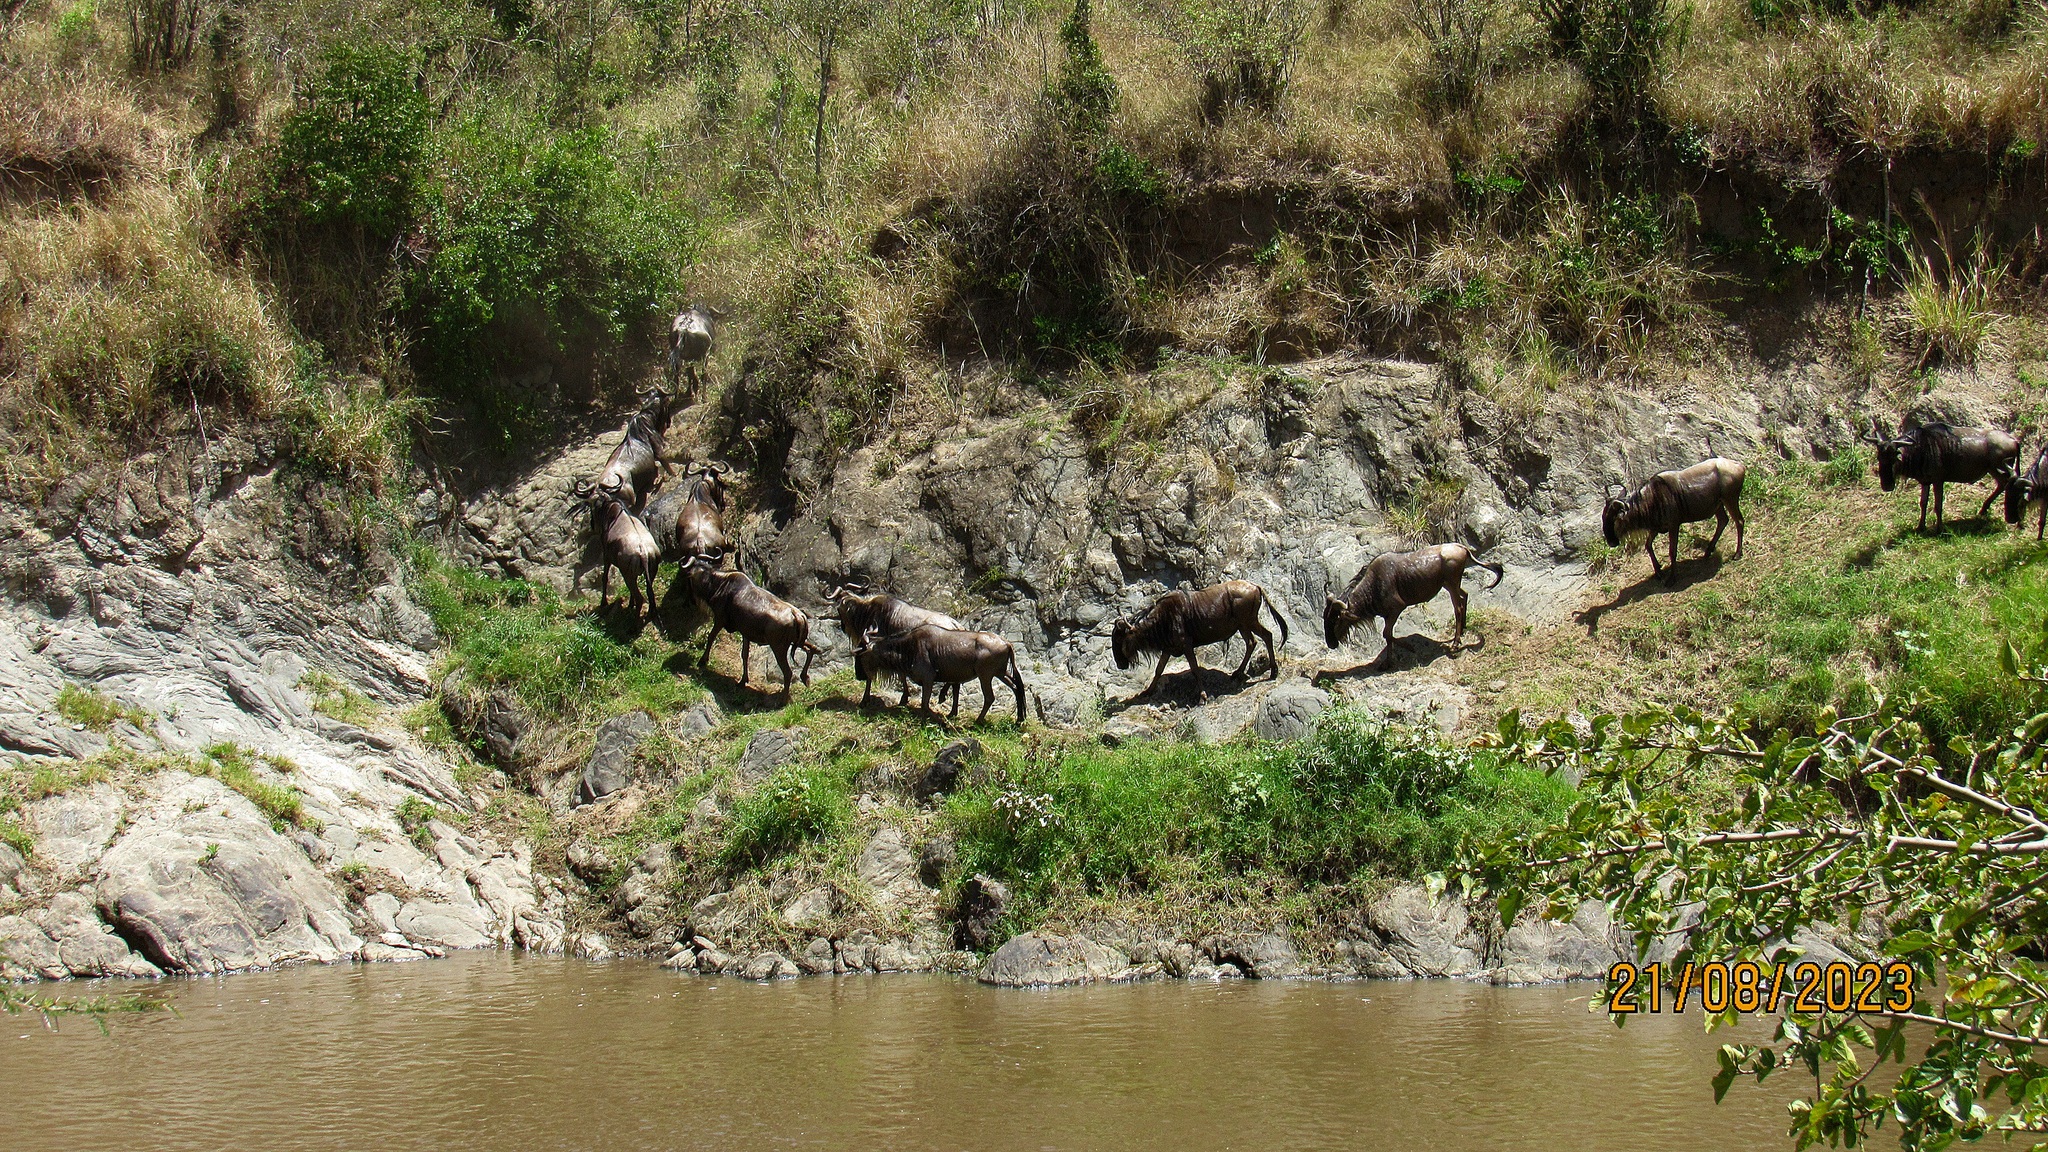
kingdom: Animalia
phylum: Chordata
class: Mammalia
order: Artiodactyla
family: Bovidae
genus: Connochaetes
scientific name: Connochaetes taurinus
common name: Blue wildebeest
